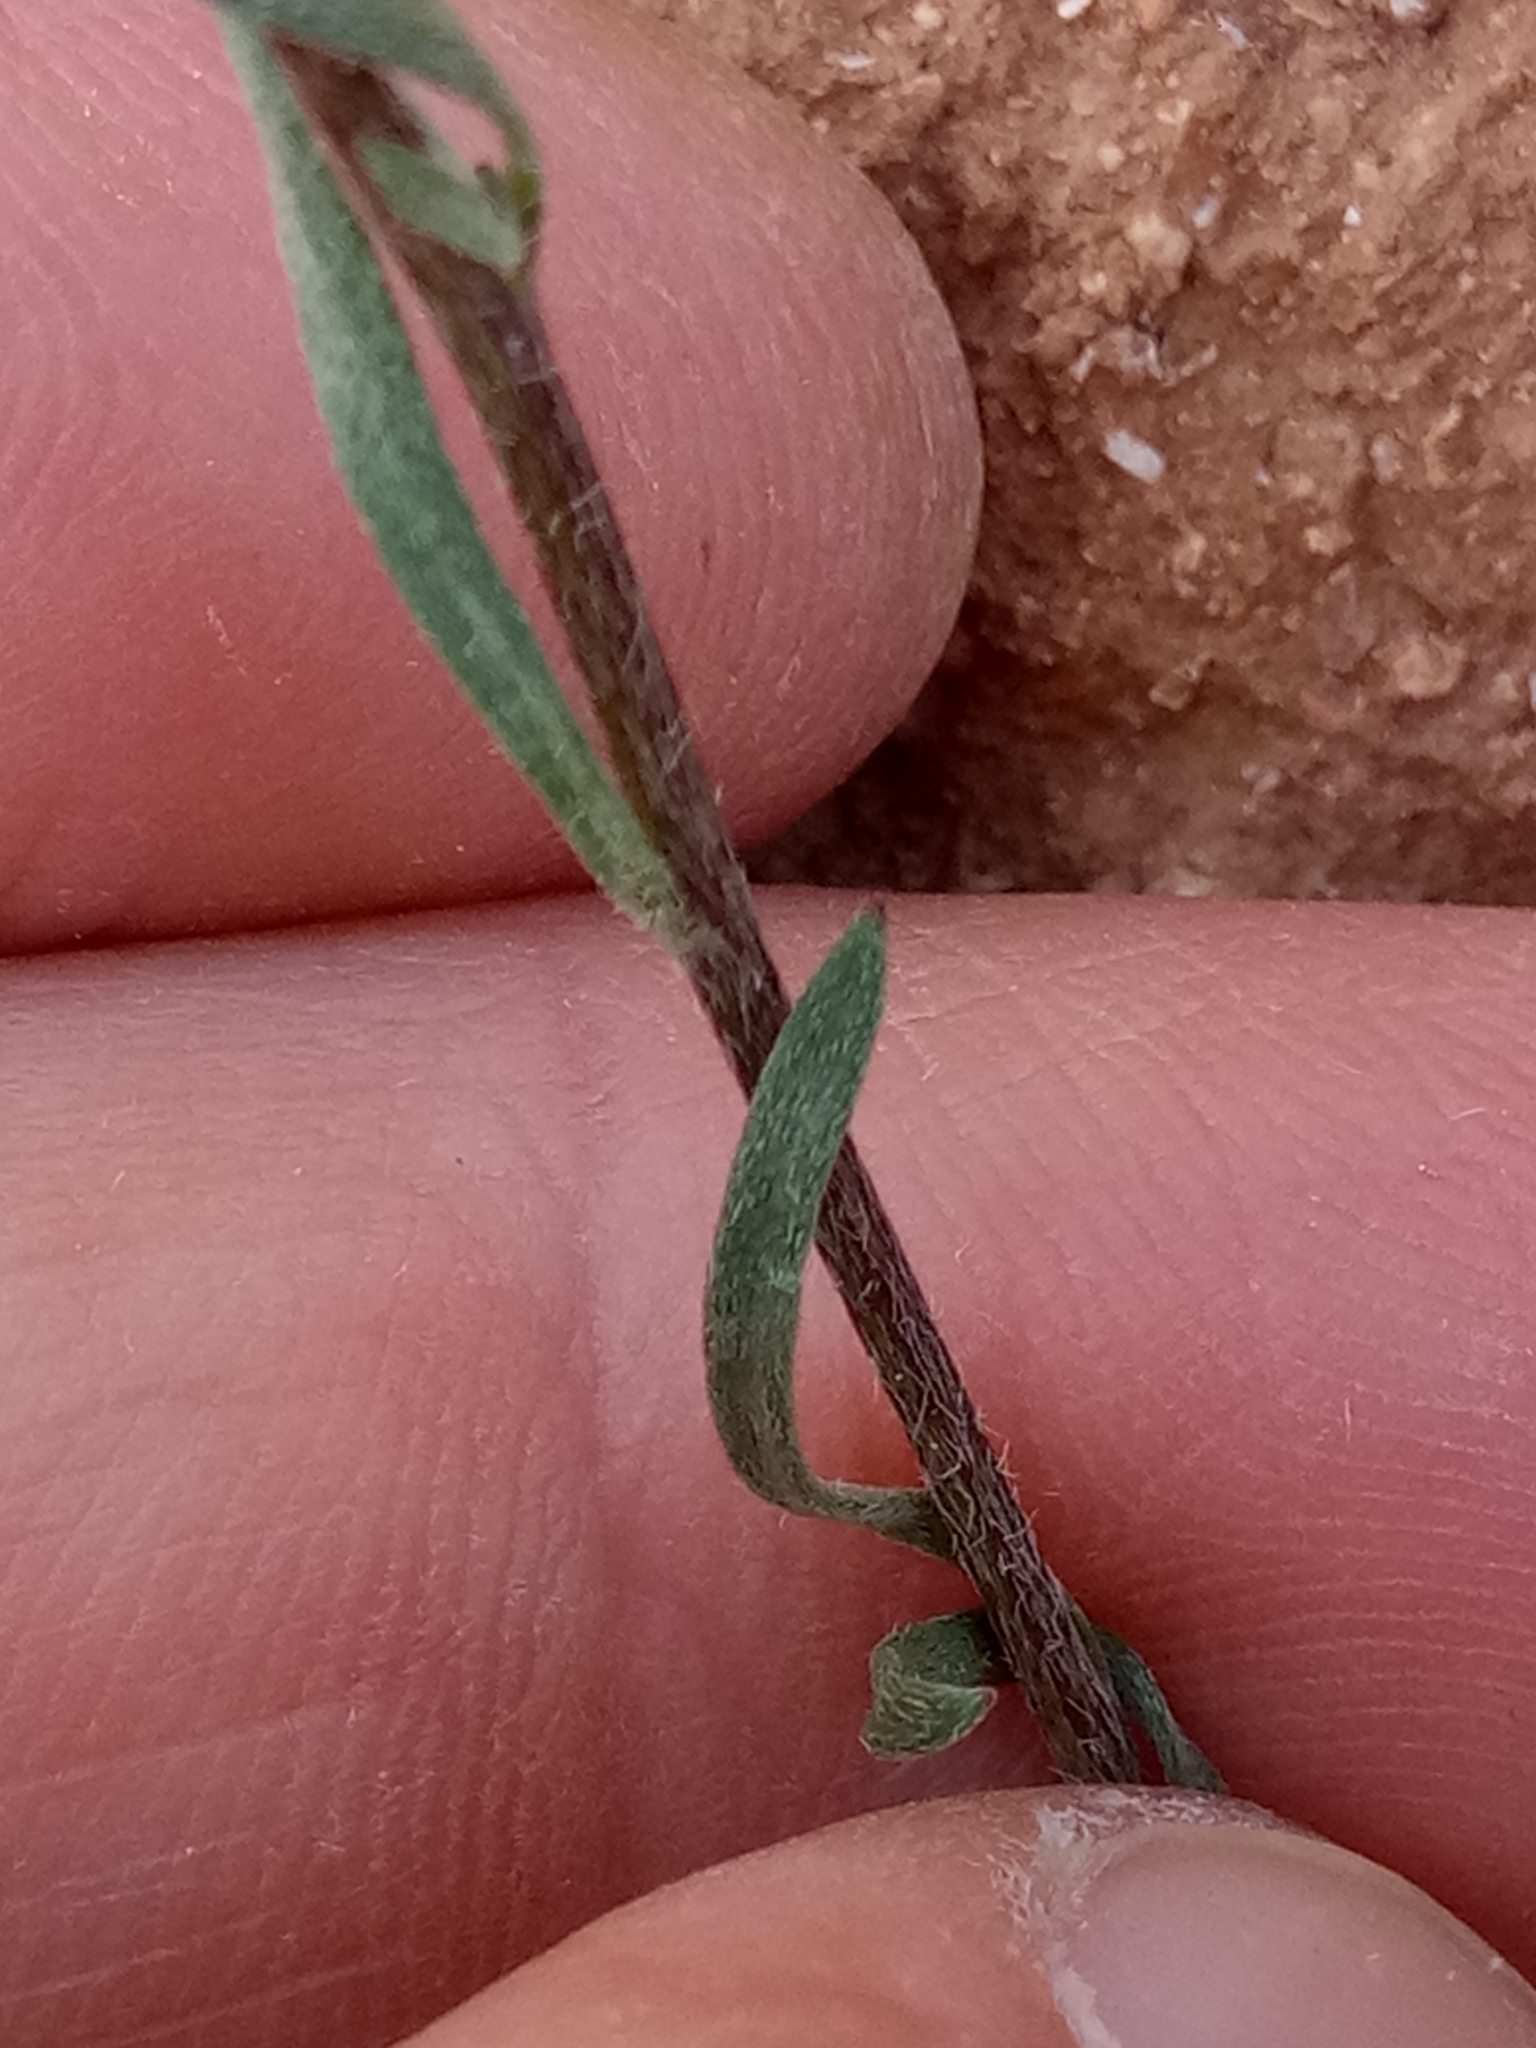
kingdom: Plantae
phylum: Tracheophyta
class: Magnoliopsida
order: Brassicales
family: Brassicaceae
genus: Lobularia
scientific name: Lobularia maritima
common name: Sweet alison
